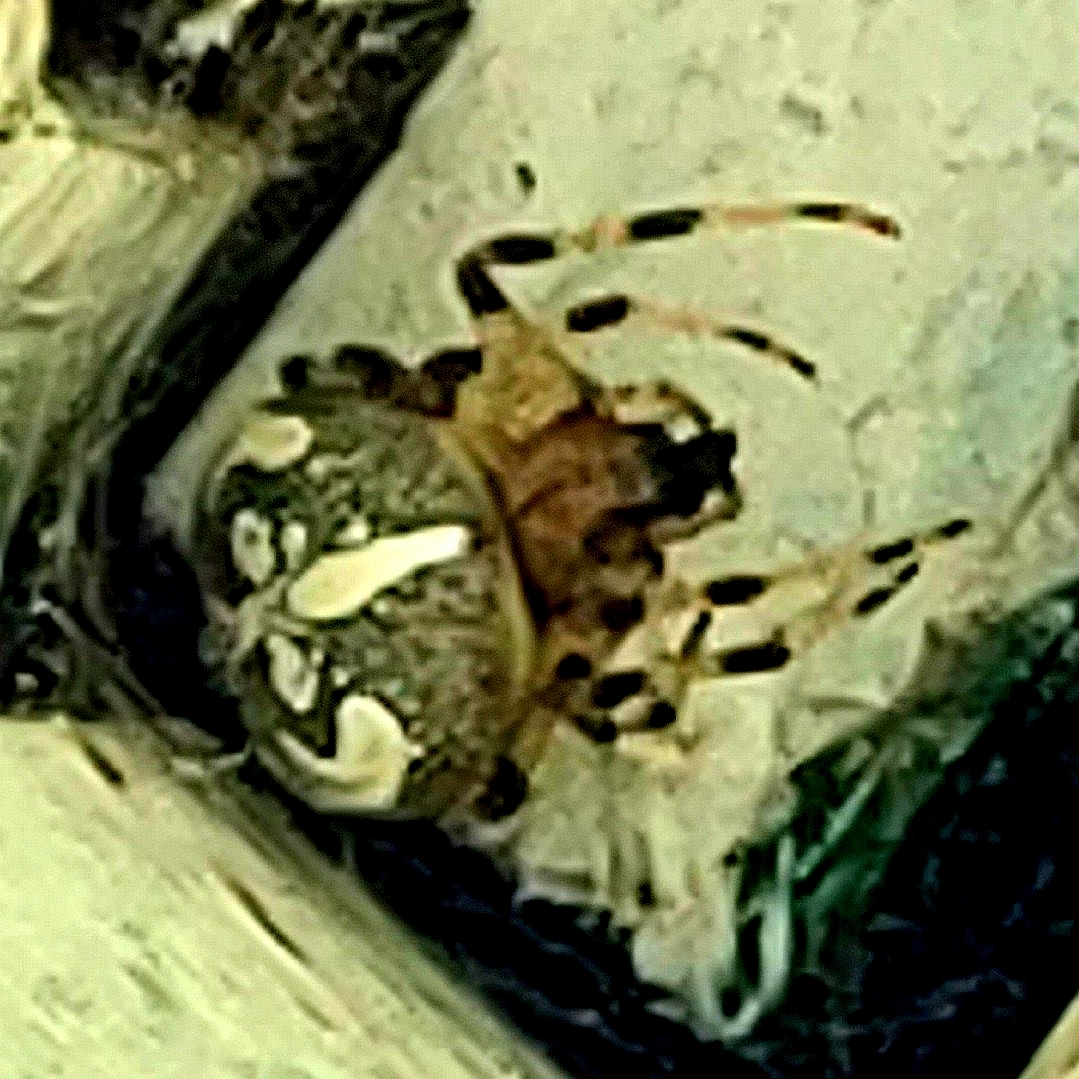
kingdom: Animalia
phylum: Arthropoda
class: Arachnida
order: Araneae
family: Araneidae
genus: Araneus
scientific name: Araneus marmoreus
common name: Marbled orbweaver
